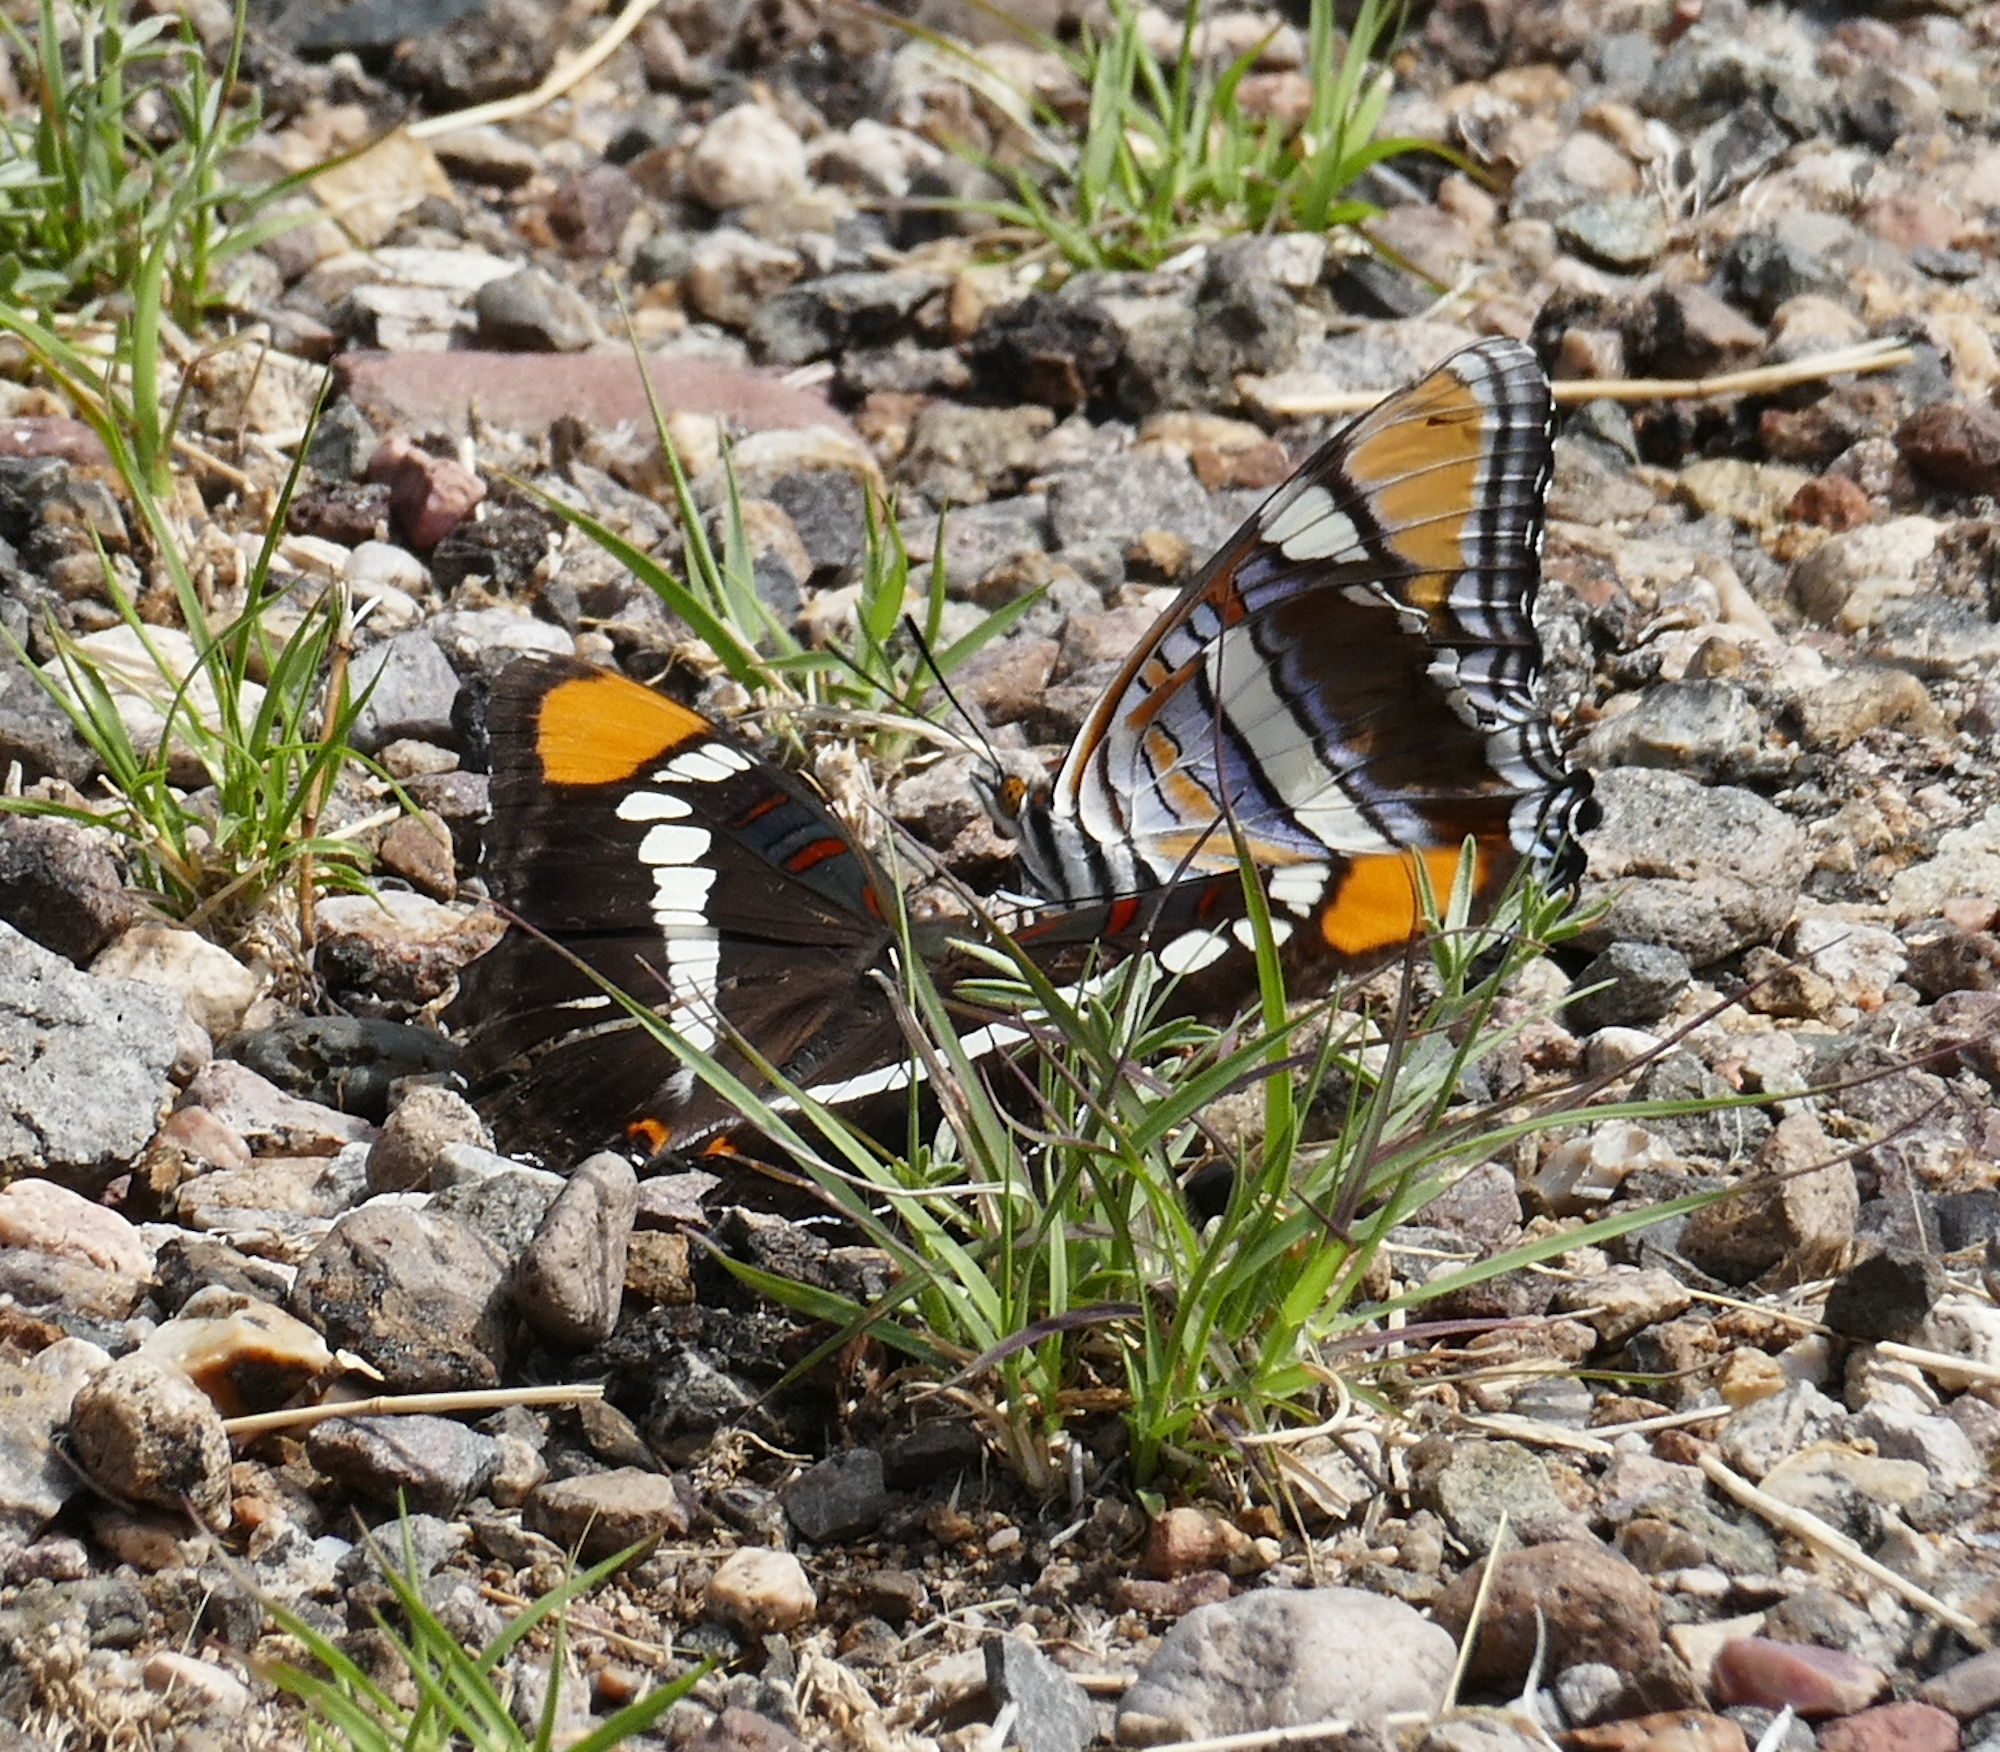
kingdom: Animalia
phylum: Arthropoda
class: Insecta
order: Lepidoptera
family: Nymphalidae
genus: Limenitis
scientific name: Limenitis bredowii
